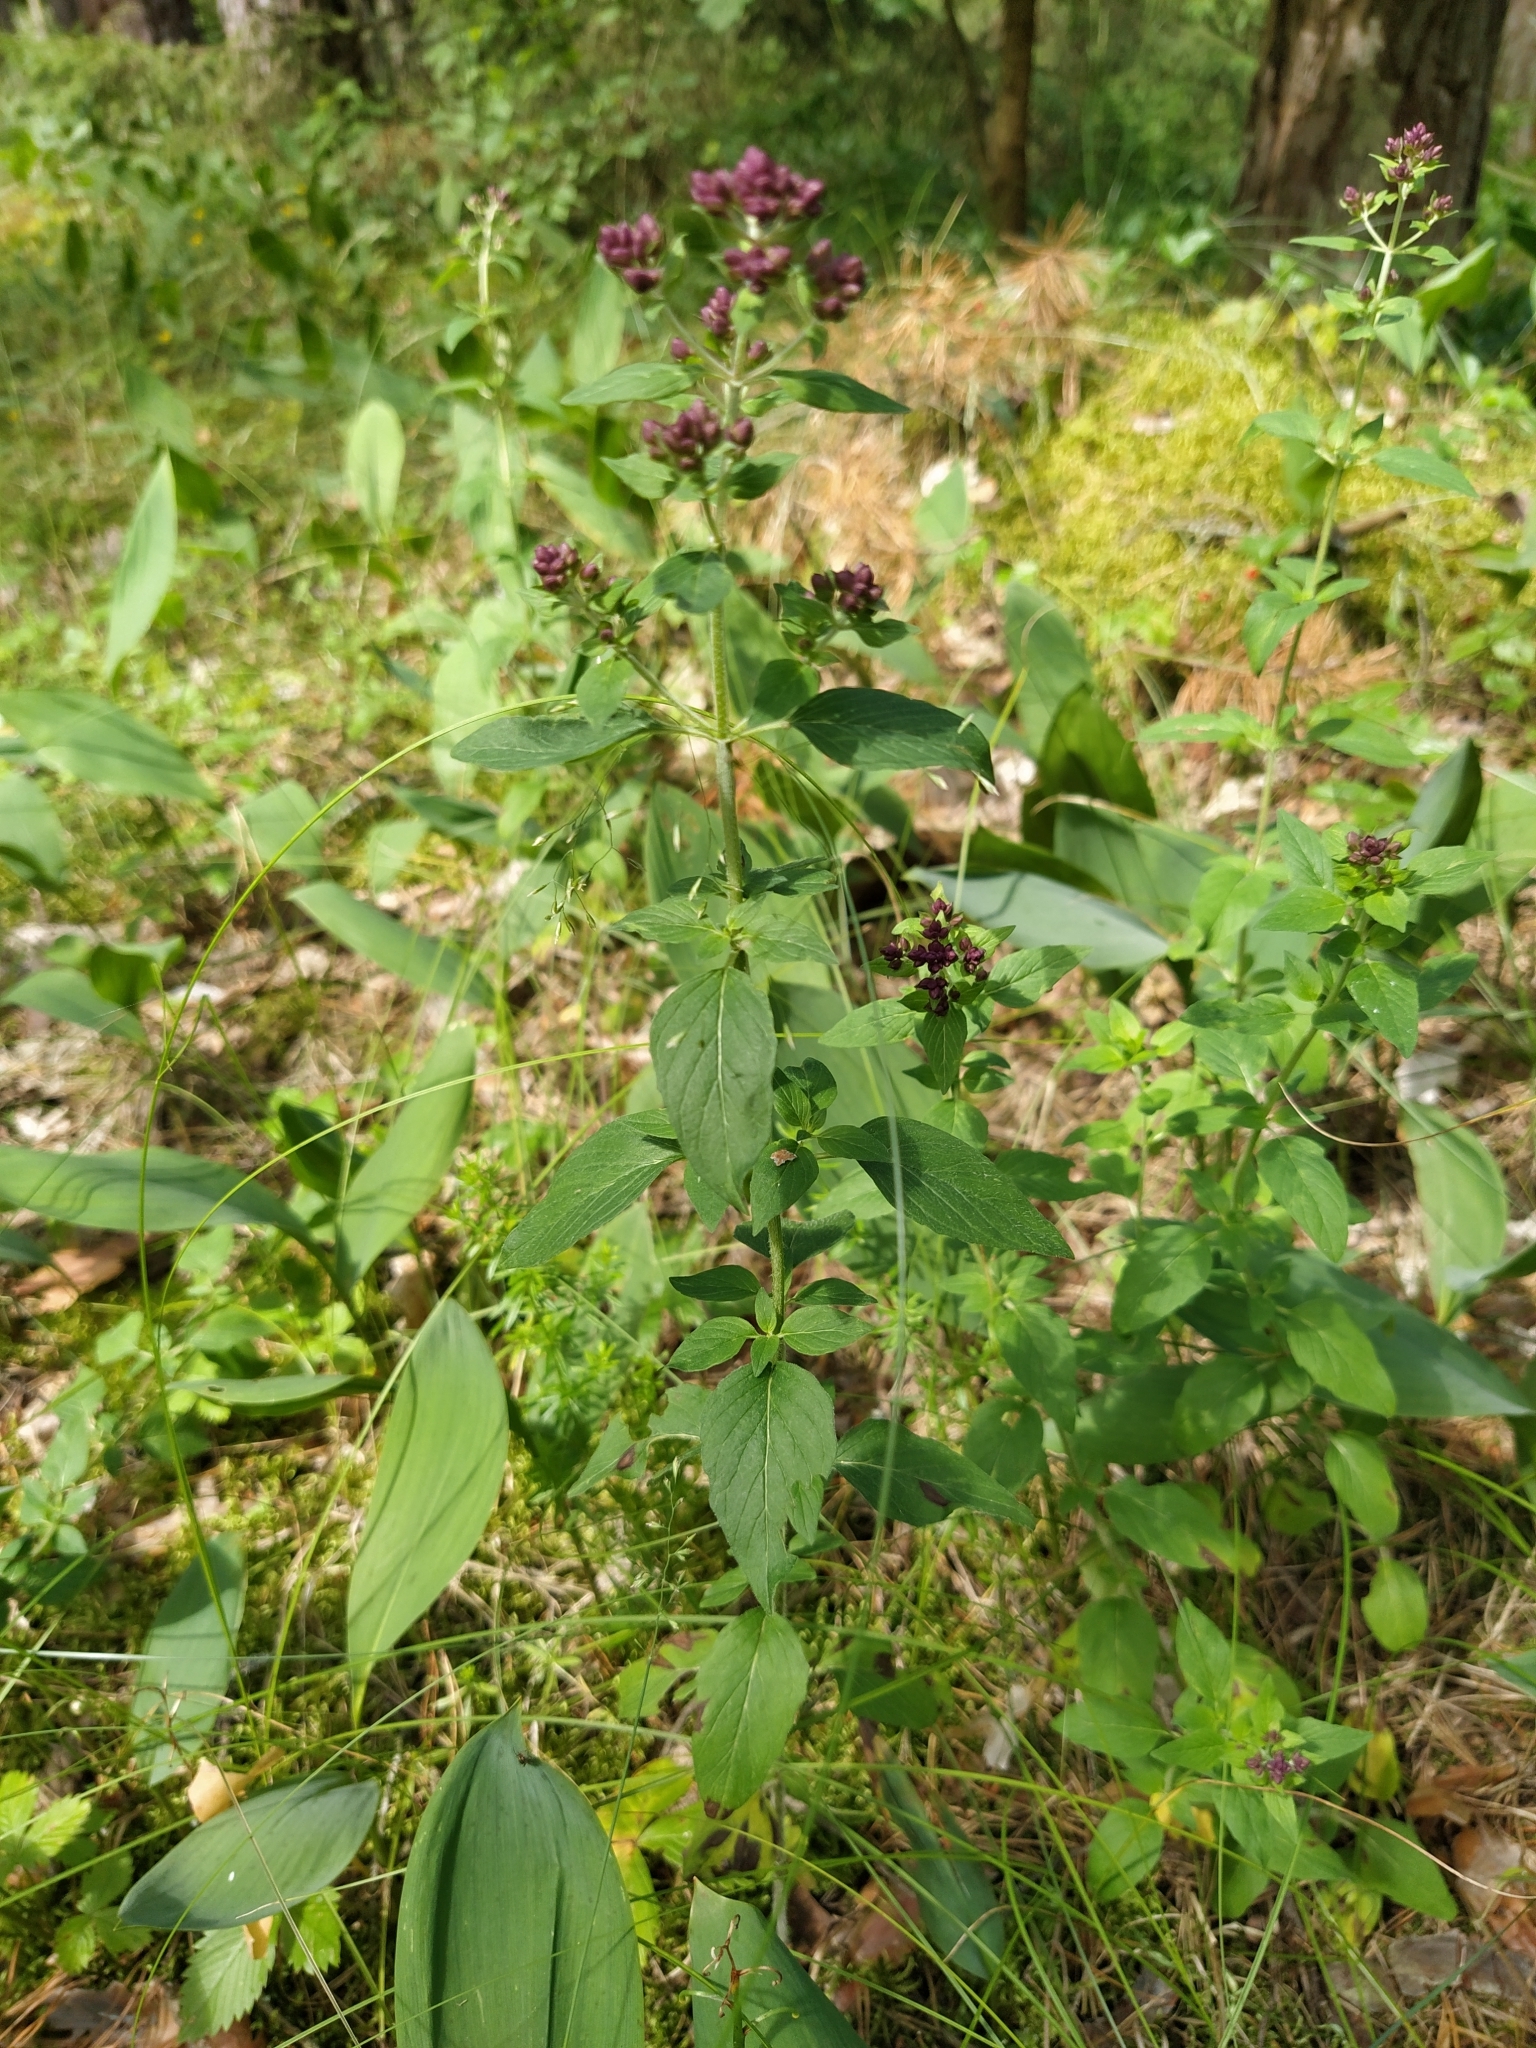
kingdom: Plantae
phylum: Tracheophyta
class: Magnoliopsida
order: Lamiales
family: Lamiaceae
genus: Origanum
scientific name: Origanum vulgare
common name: Wild marjoram
